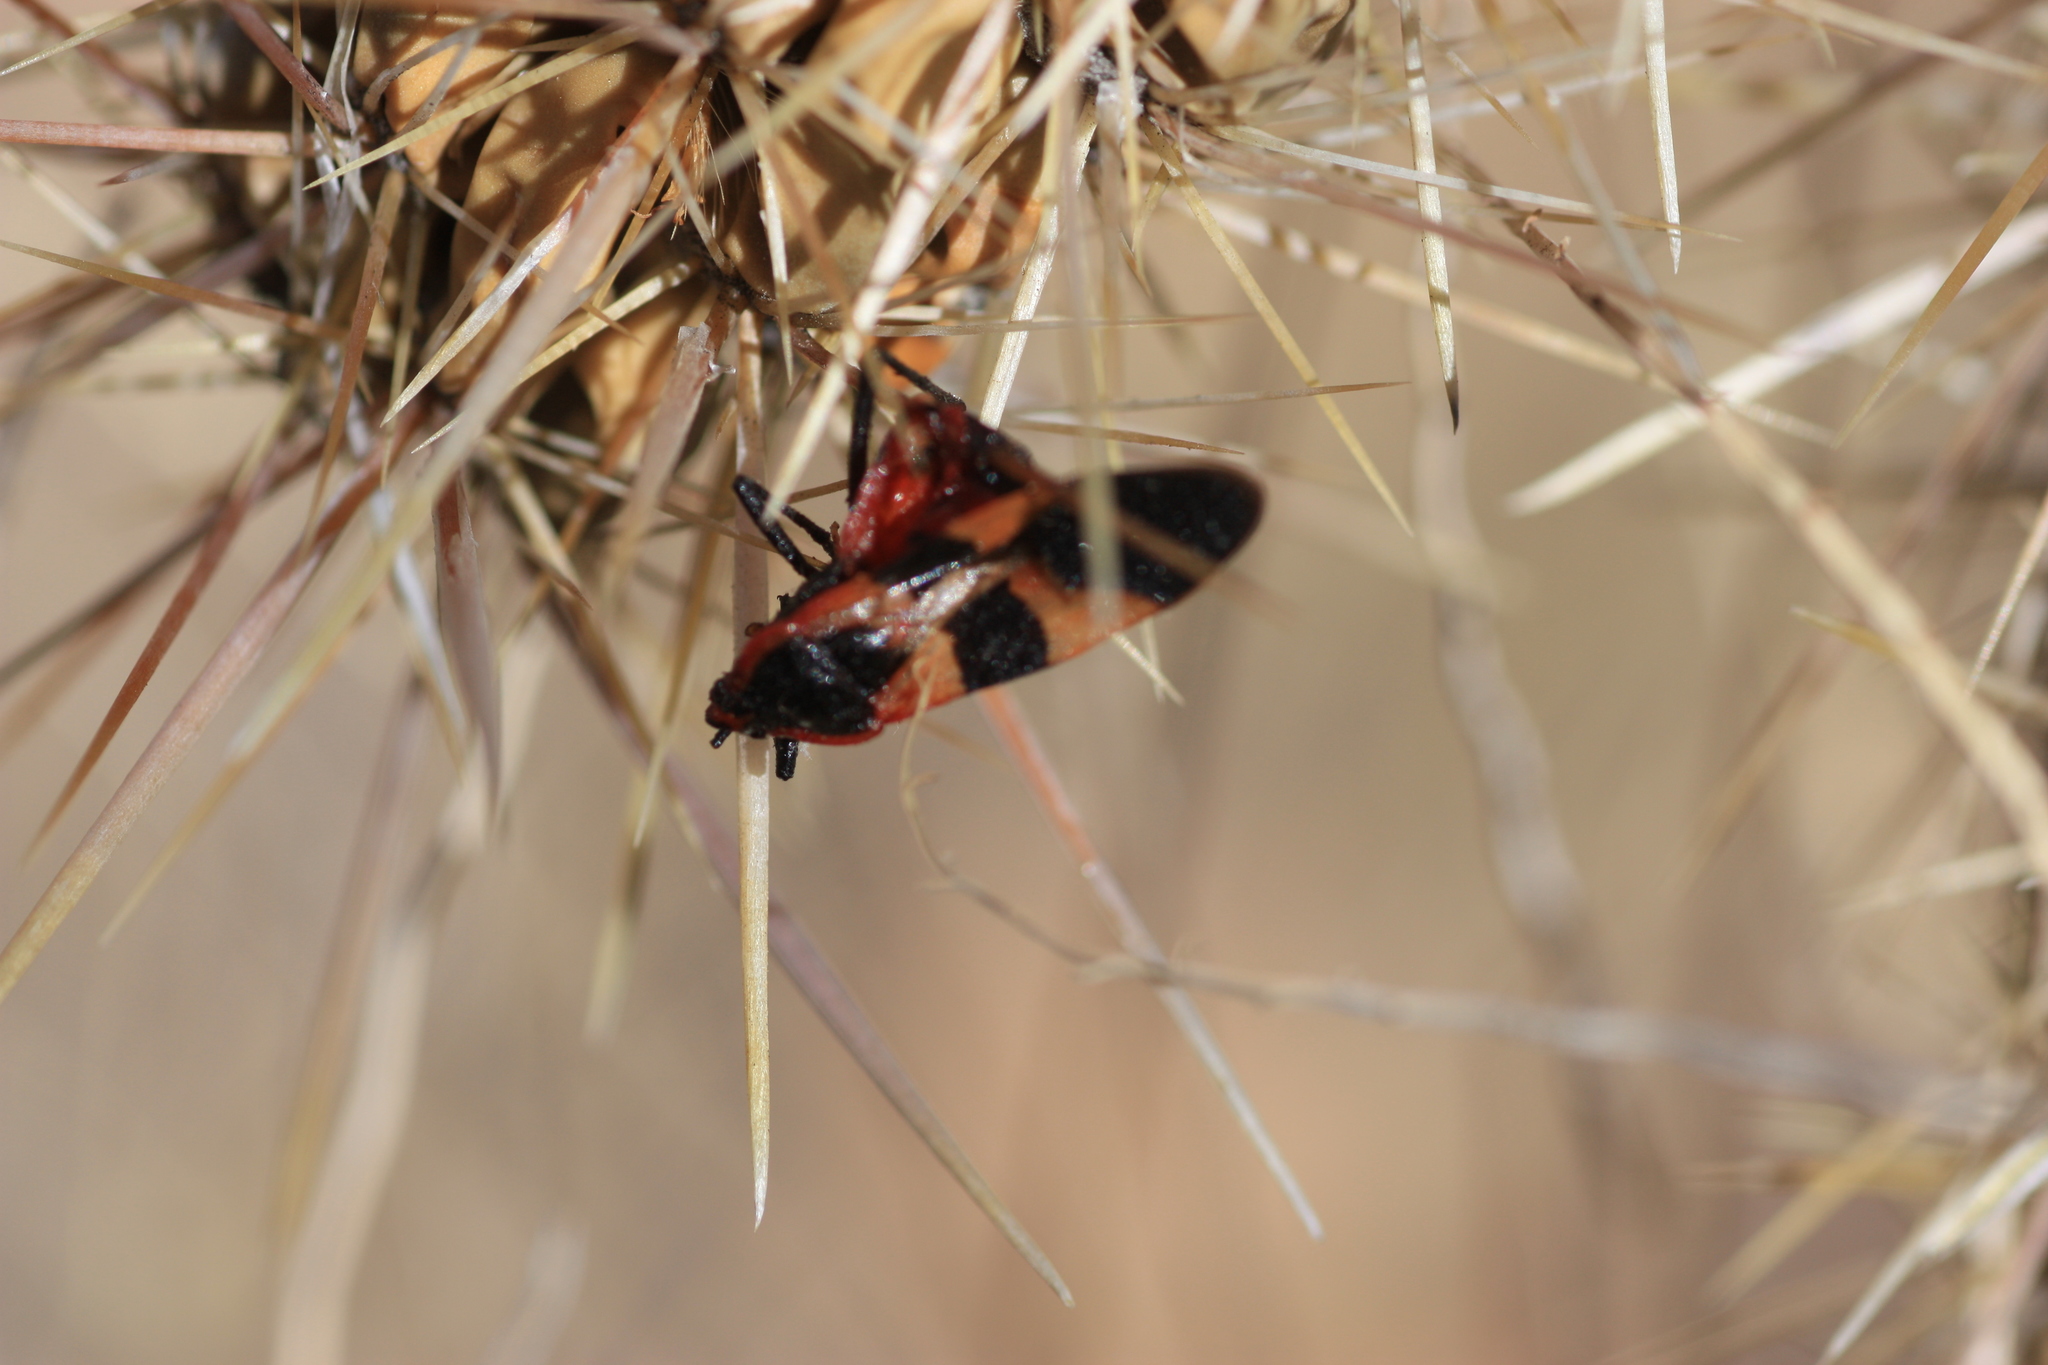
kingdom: Animalia
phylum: Arthropoda
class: Insecta
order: Hemiptera
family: Lygaeidae
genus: Oncopeltus
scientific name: Oncopeltus fasciatus
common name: Large milkweed bug
